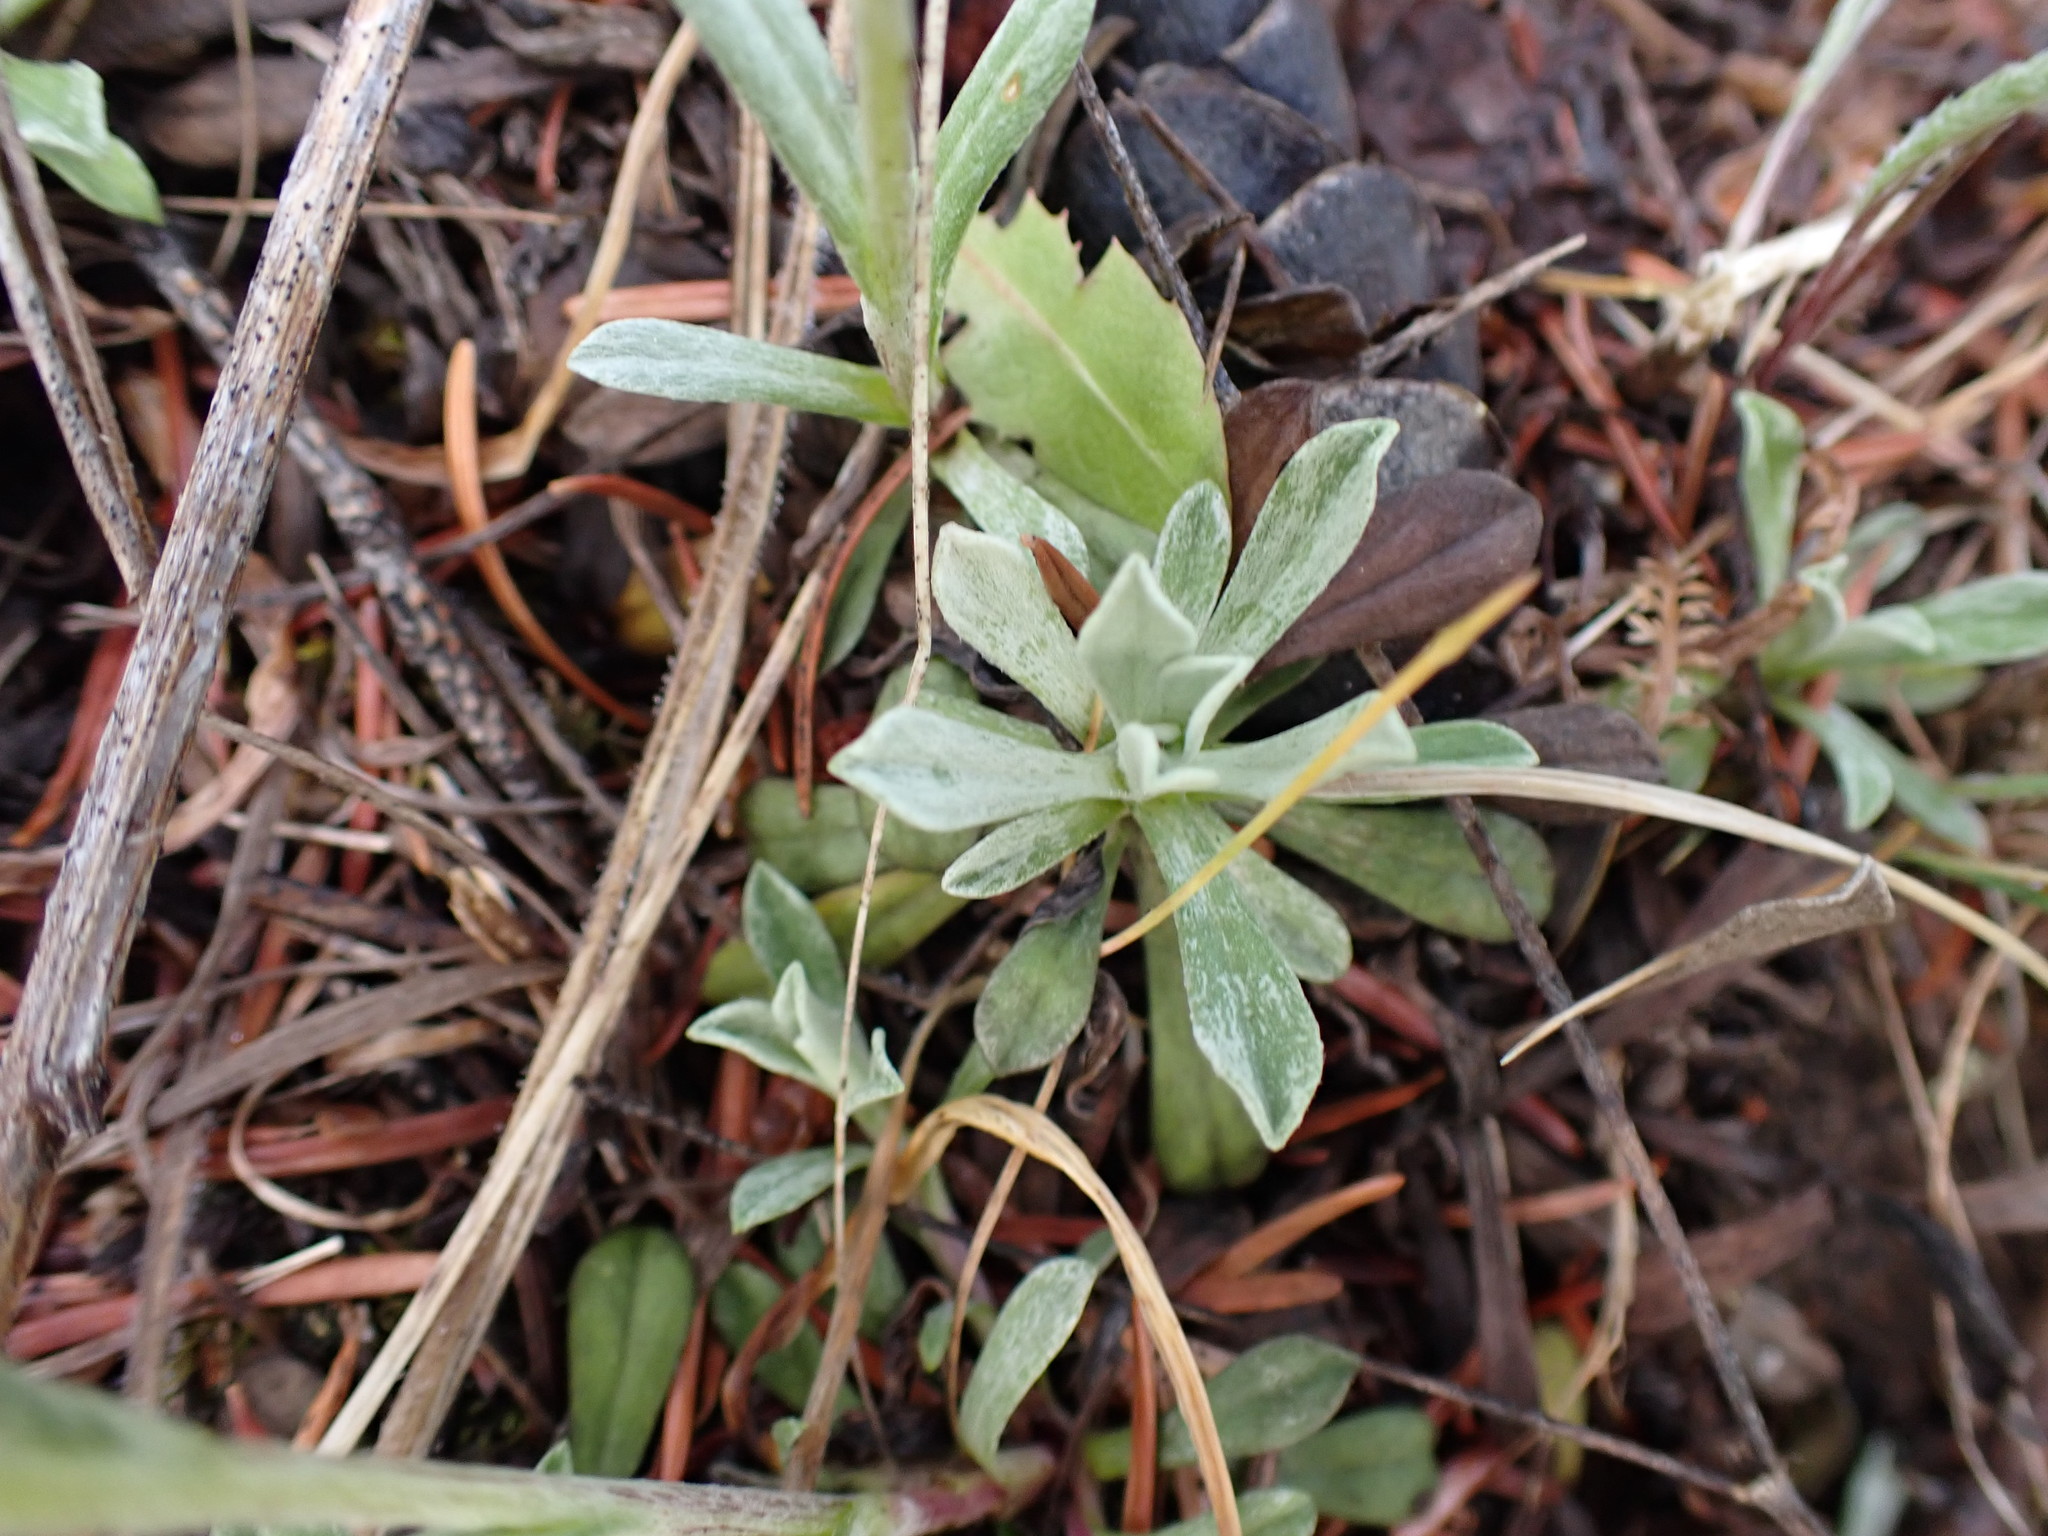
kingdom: Plantae
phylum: Tracheophyta
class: Magnoliopsida
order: Asterales
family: Asteraceae
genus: Antennaria
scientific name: Antennaria umbrinella
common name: Brown pussytoes
